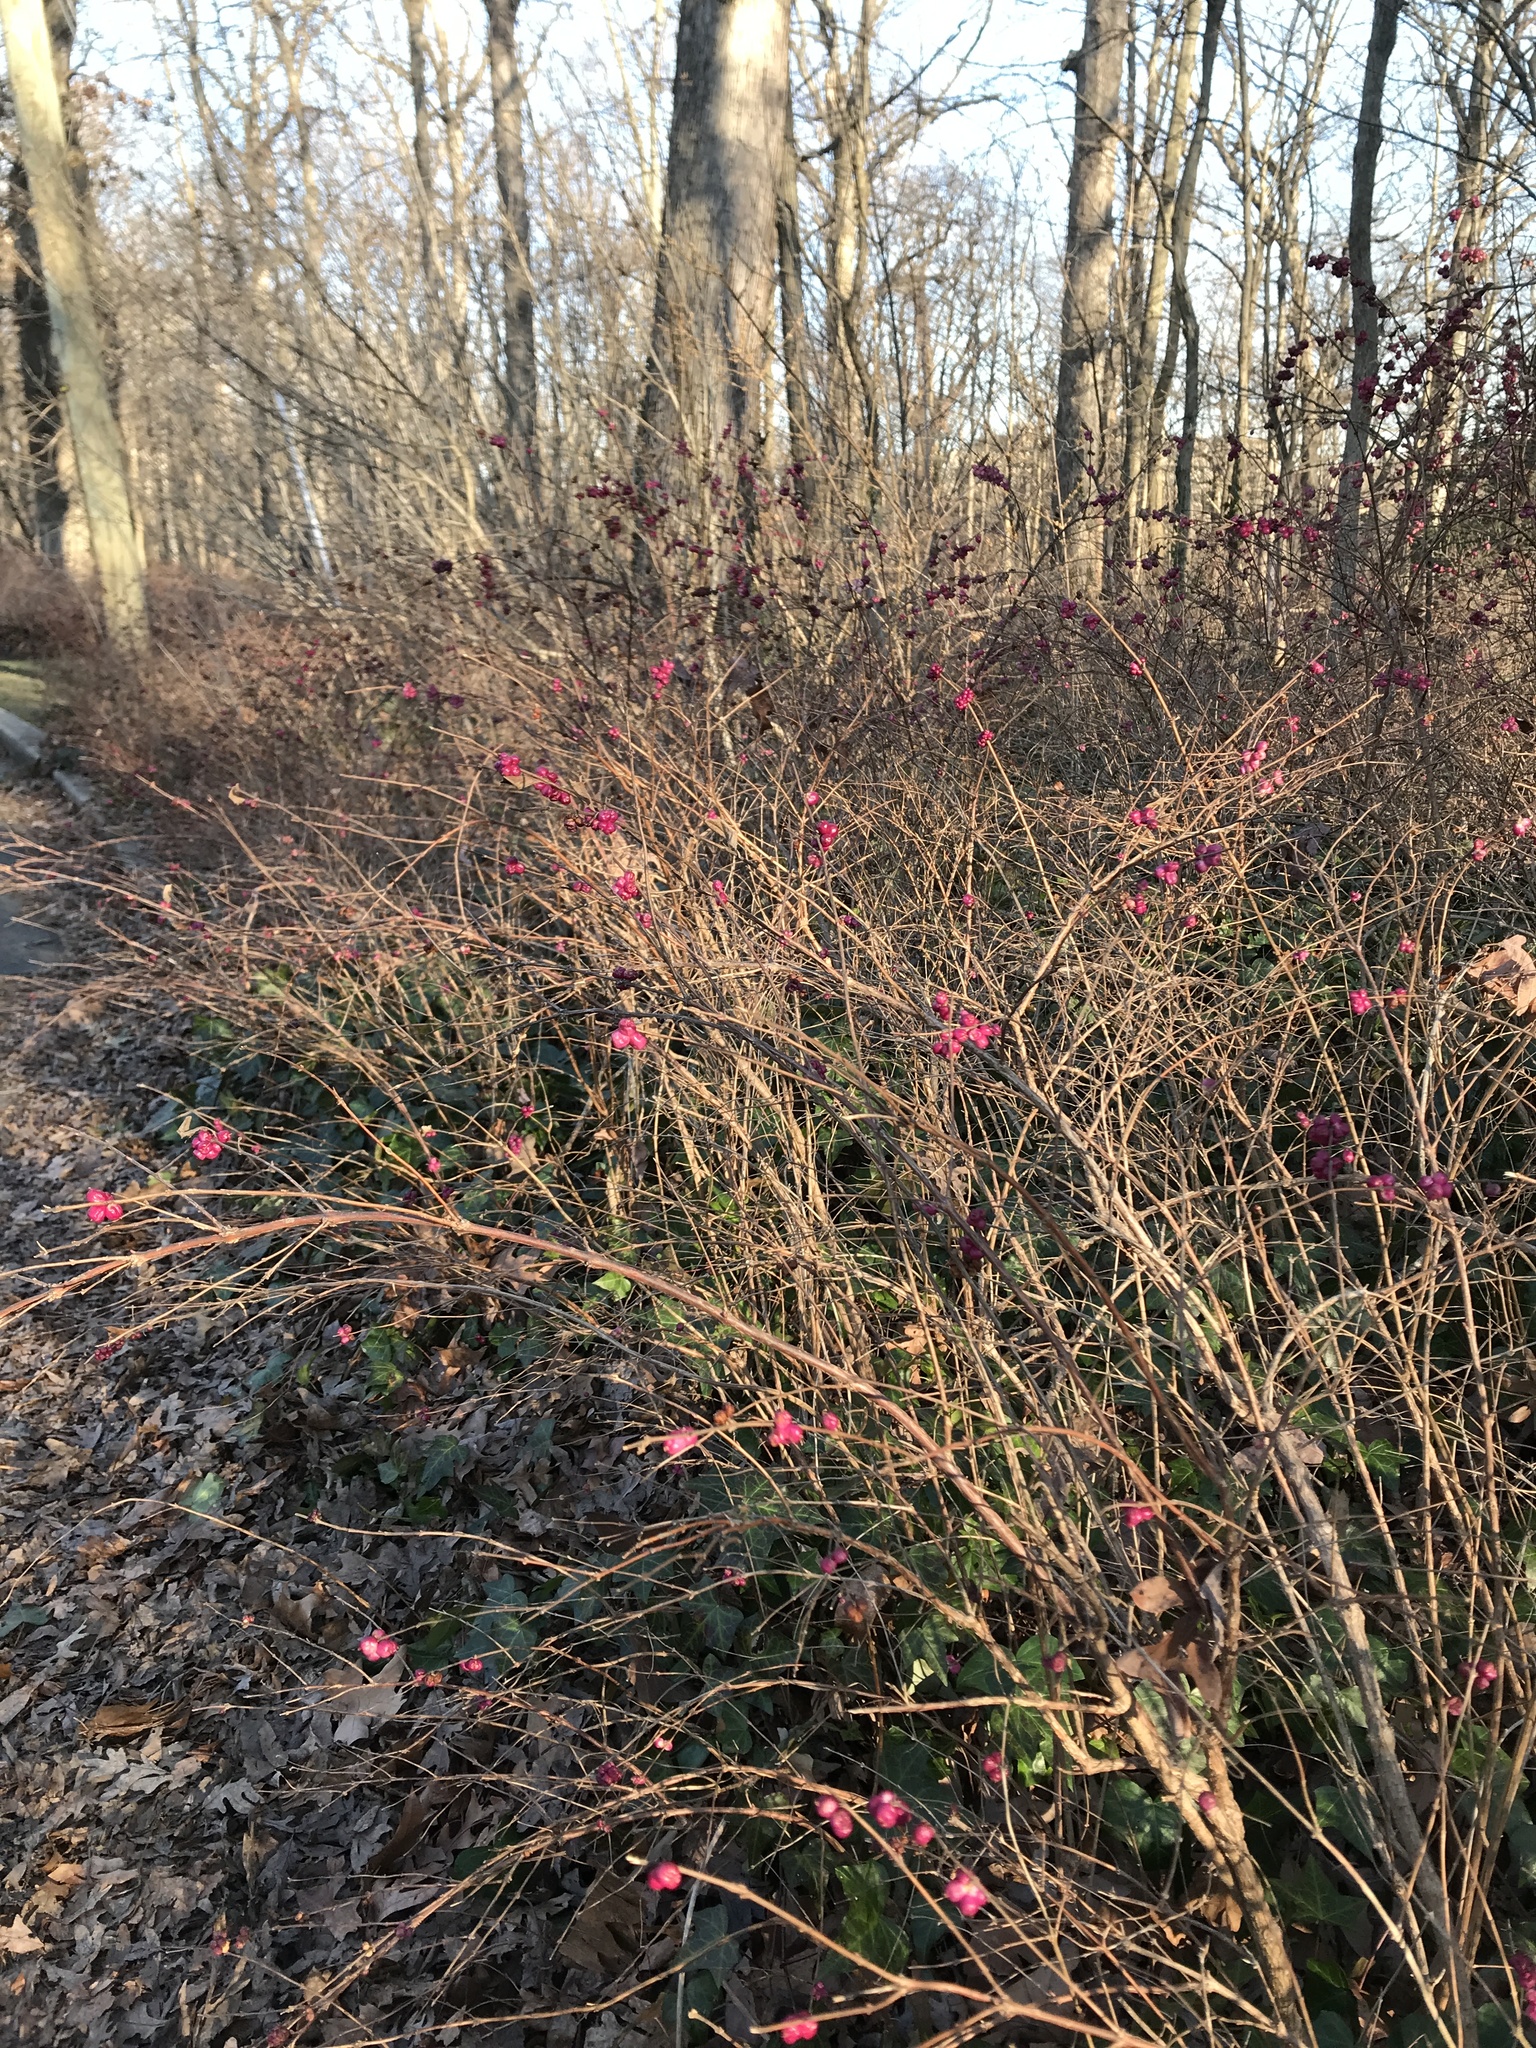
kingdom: Plantae
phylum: Tracheophyta
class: Magnoliopsida
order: Dipsacales
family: Caprifoliaceae
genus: Symphoricarpos
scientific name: Symphoricarpos orbiculatus
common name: Coralberry
